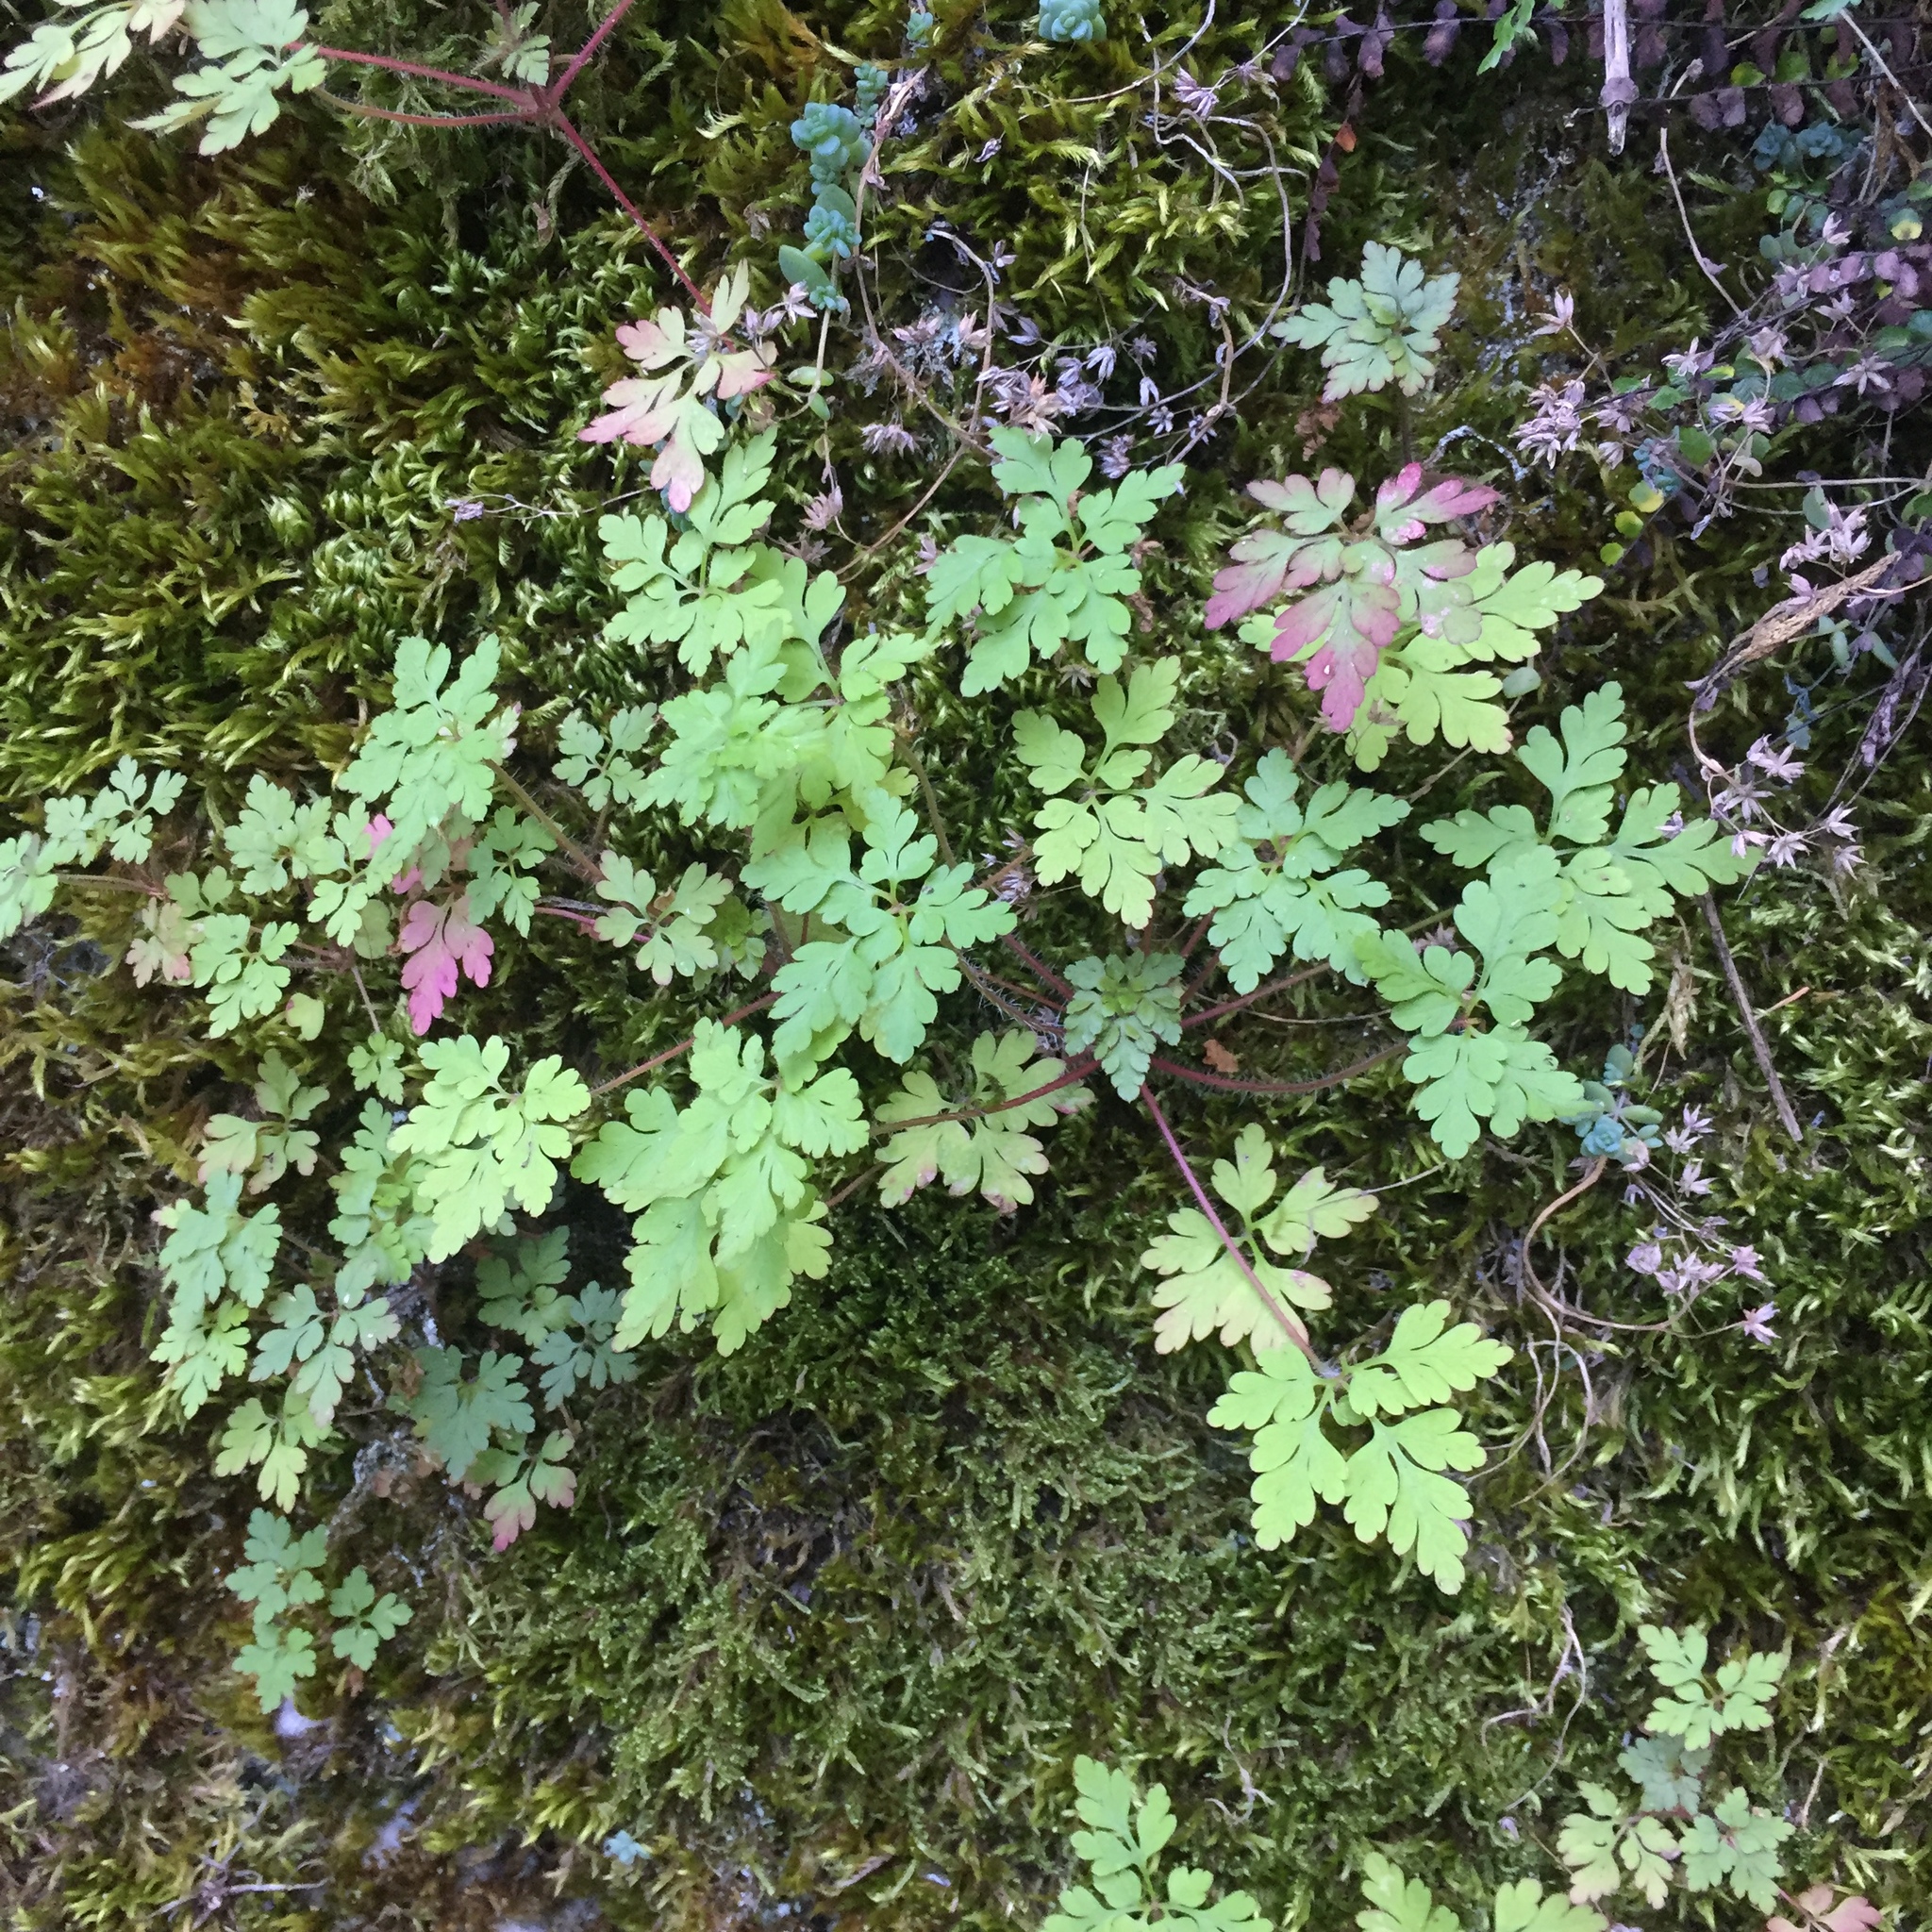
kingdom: Plantae
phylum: Tracheophyta
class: Magnoliopsida
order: Geraniales
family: Geraniaceae
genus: Geranium
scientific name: Geranium robertianum
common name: Herb-robert
